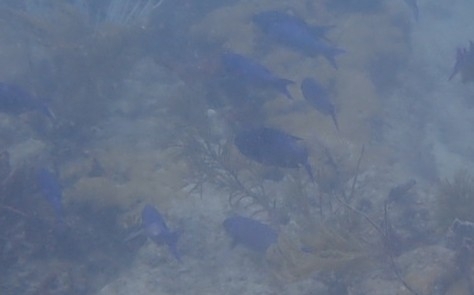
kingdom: Animalia
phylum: Chordata
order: Perciformes
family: Labridae
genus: Bodianus
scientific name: Bodianus
